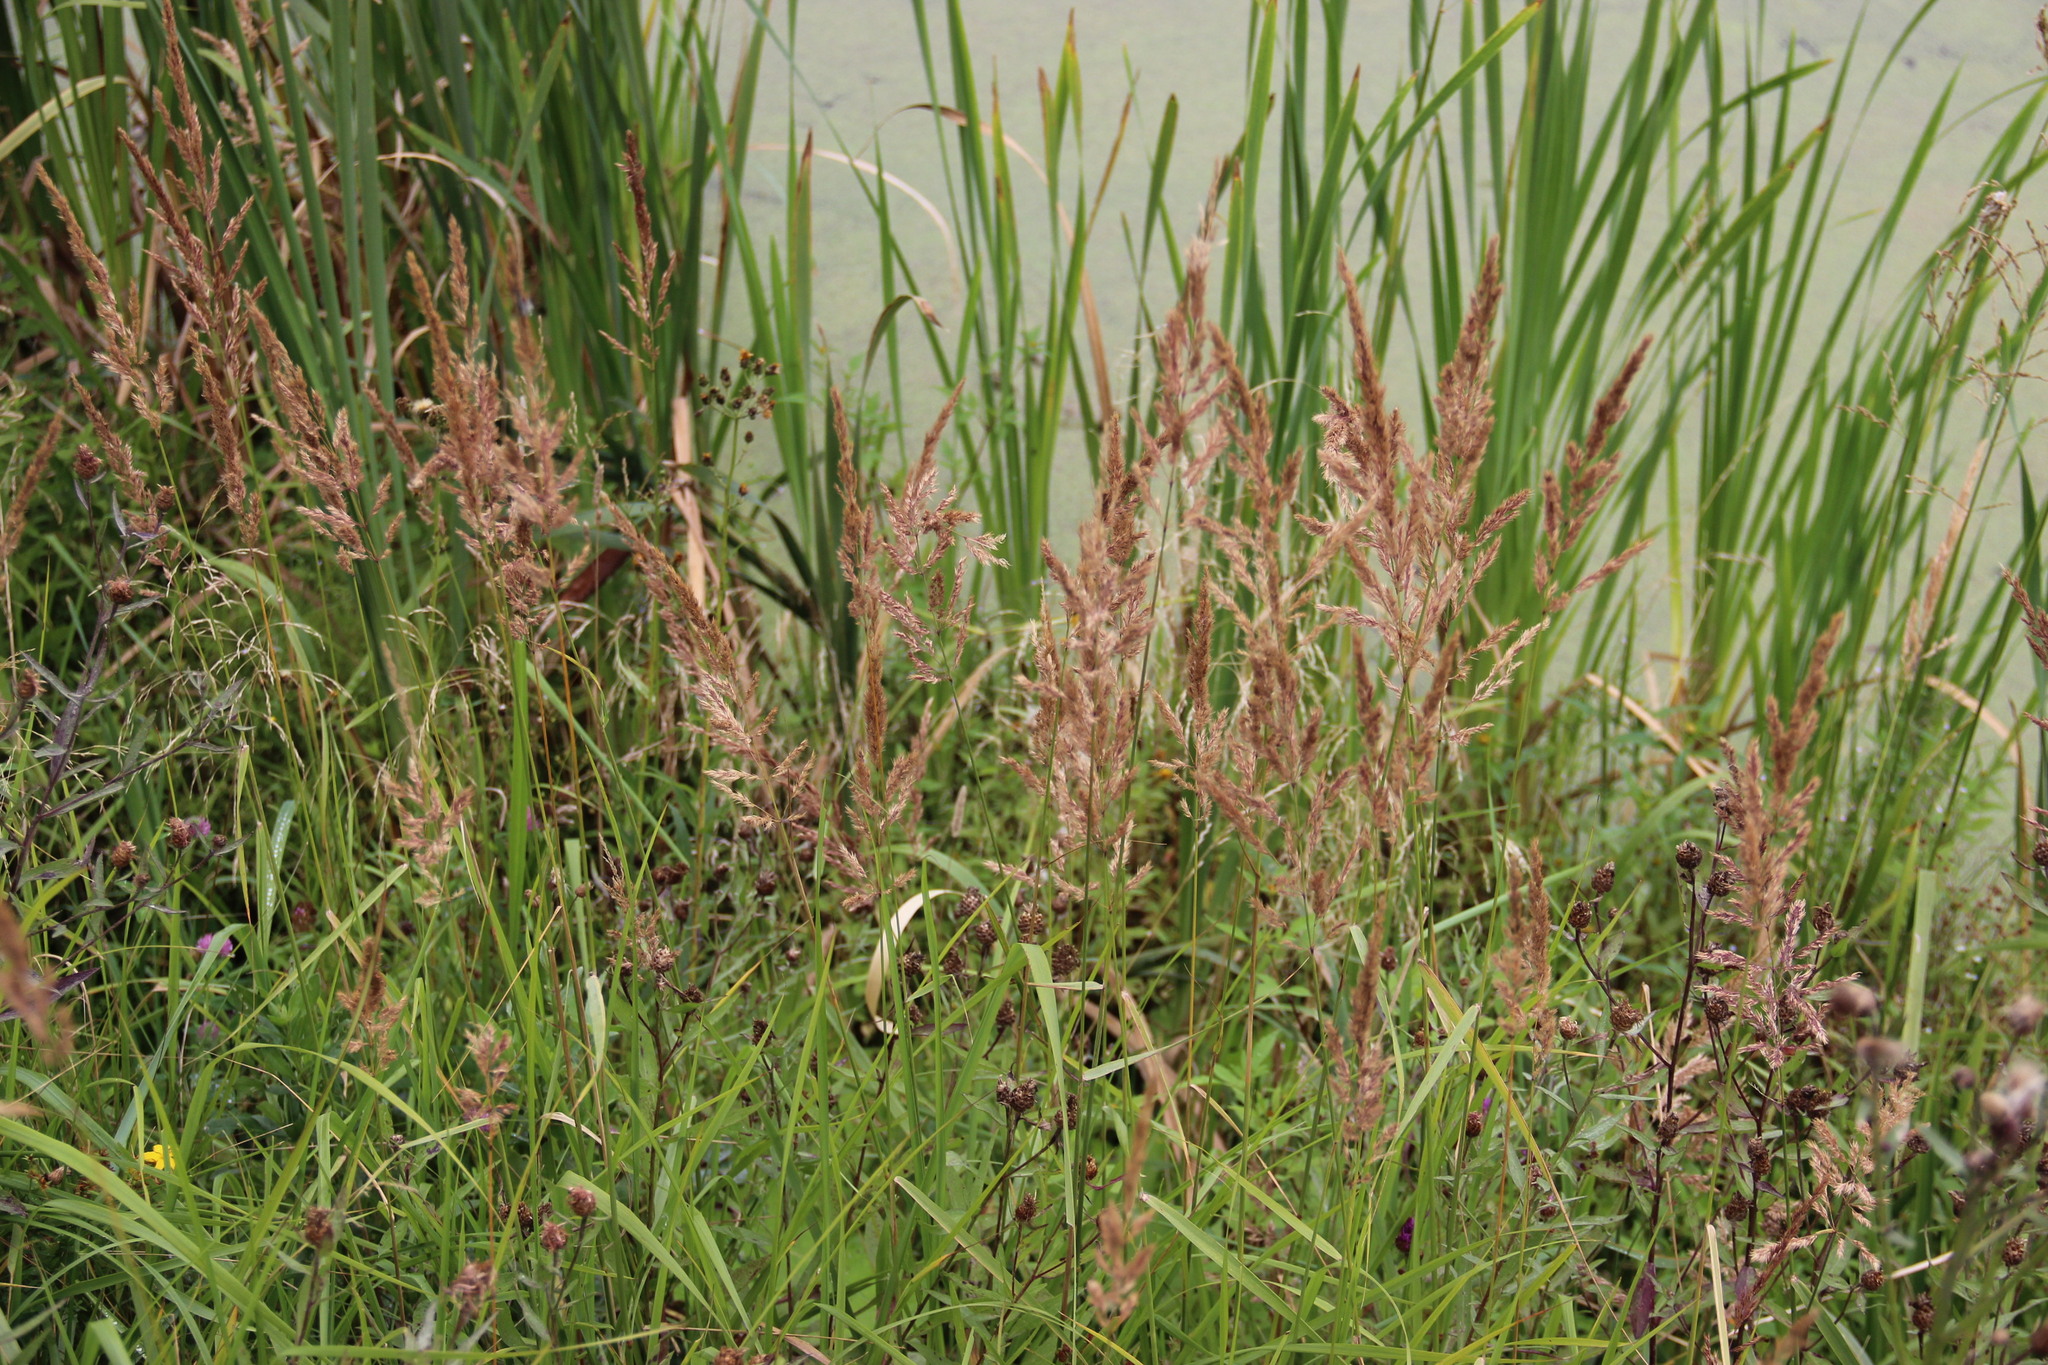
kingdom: Plantae
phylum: Tracheophyta
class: Liliopsida
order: Poales
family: Poaceae
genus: Calamagrostis
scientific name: Calamagrostis epigejos
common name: Wood small-reed
